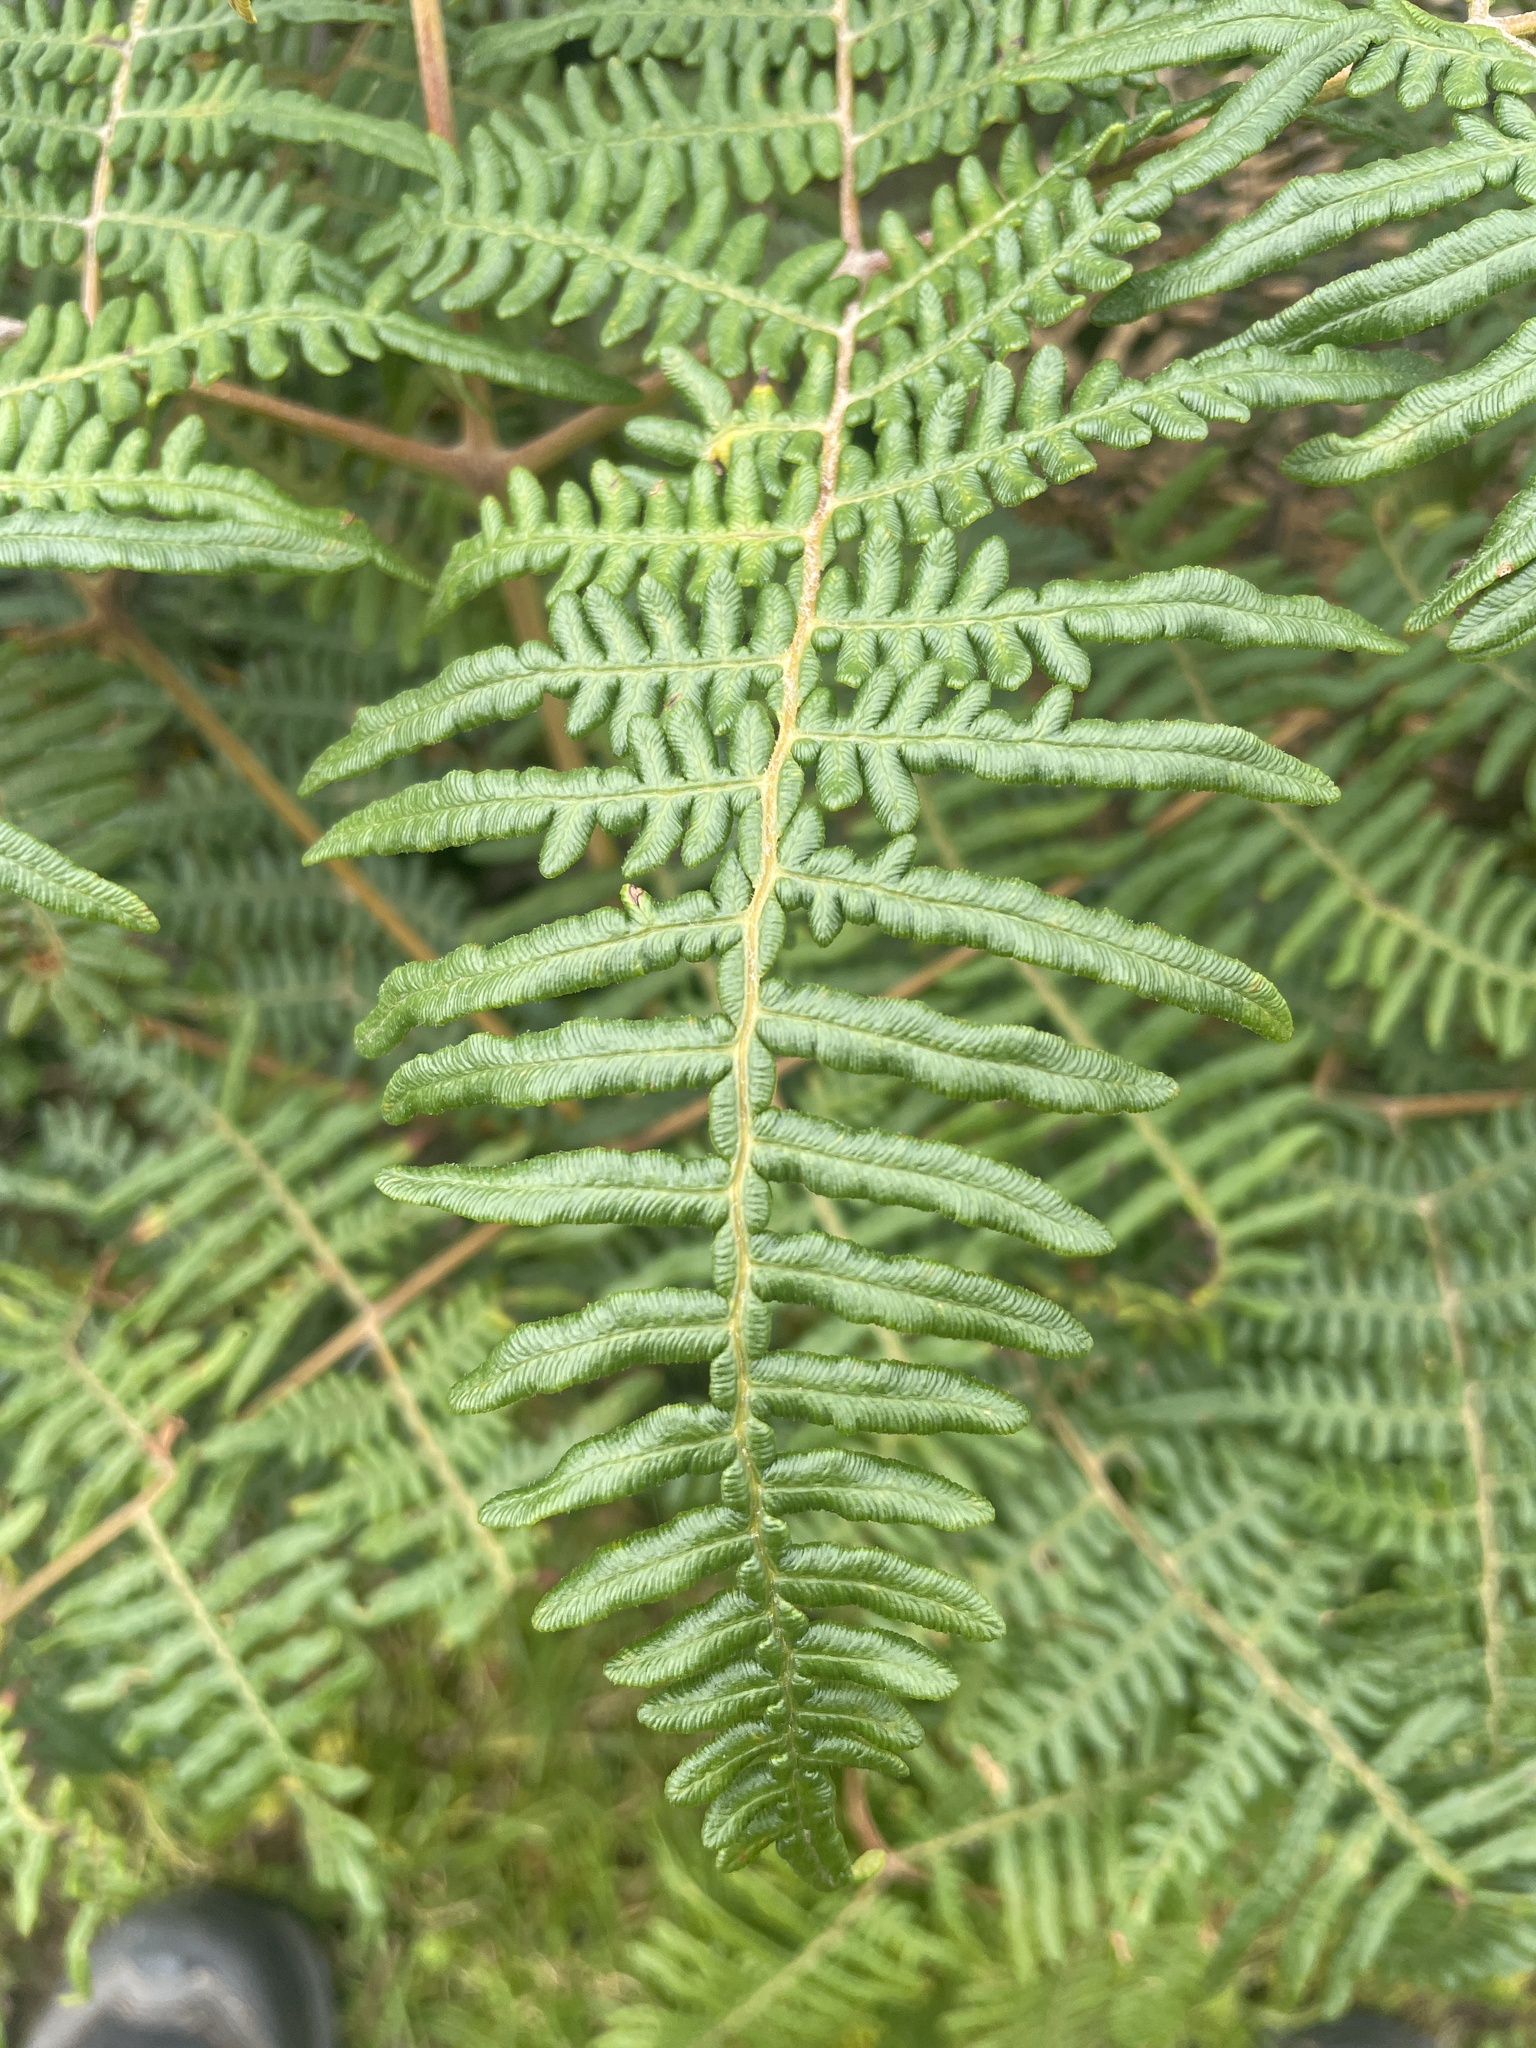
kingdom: Plantae
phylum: Tracheophyta
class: Polypodiopsida
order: Polypodiales
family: Dennstaedtiaceae
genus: Pteridium
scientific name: Pteridium esculentum
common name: Bracken fern
